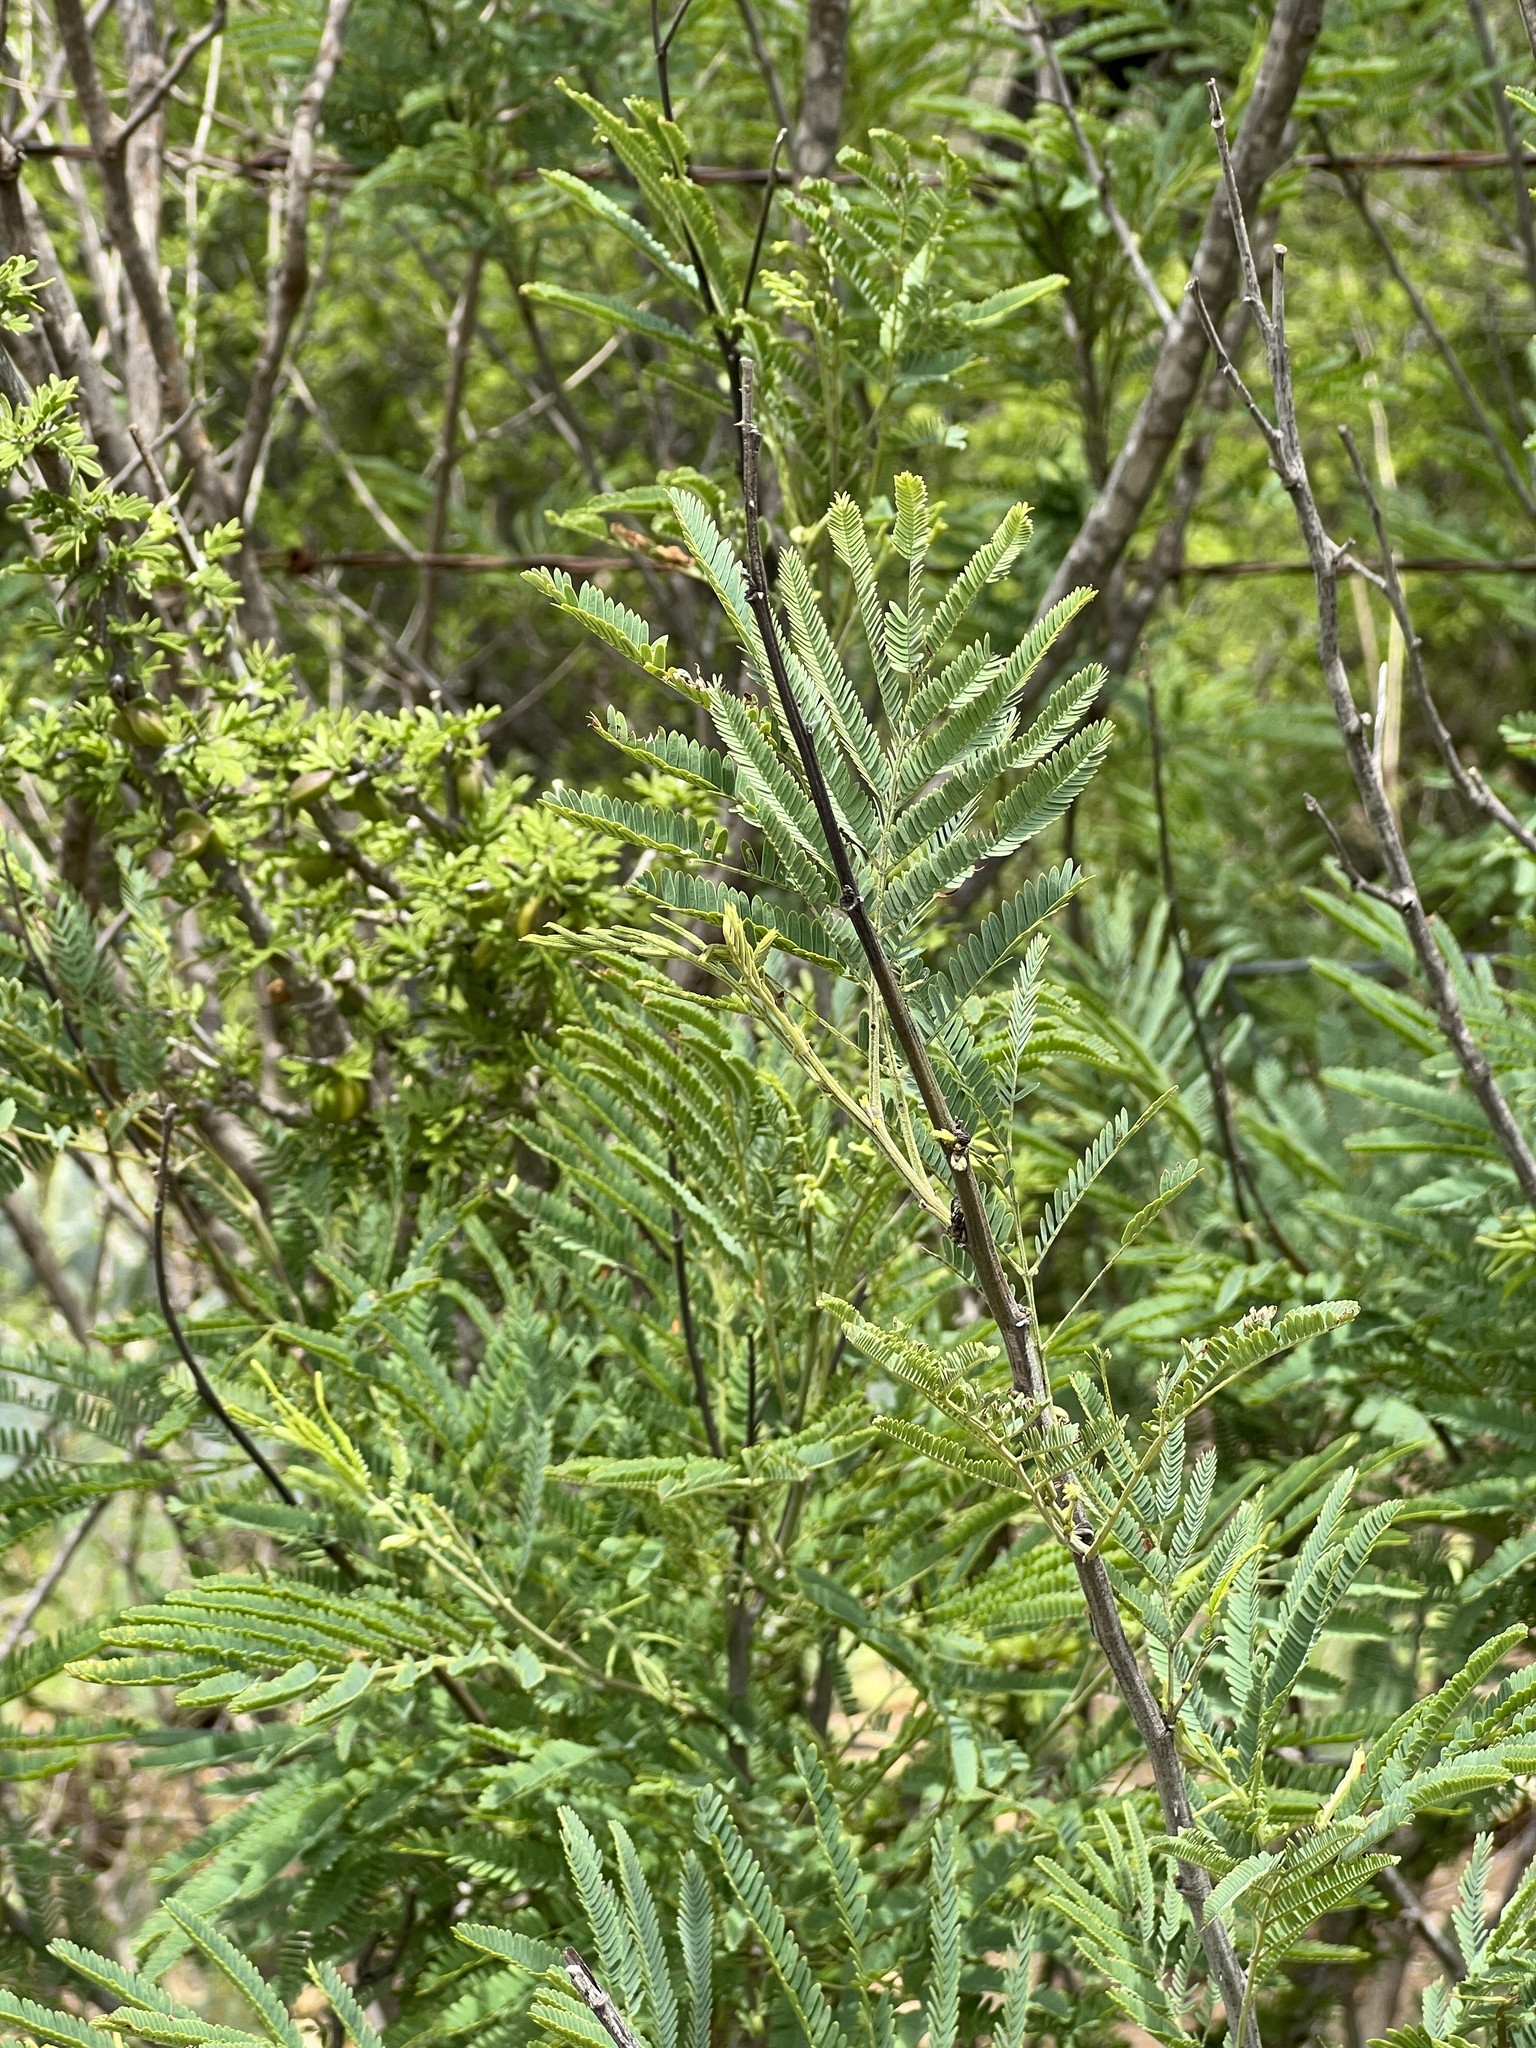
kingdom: Plantae
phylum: Tracheophyta
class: Magnoliopsida
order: Fabales
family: Fabaceae
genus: Senegalia
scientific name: Senegalia berlandieri
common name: Berlandier acacia
